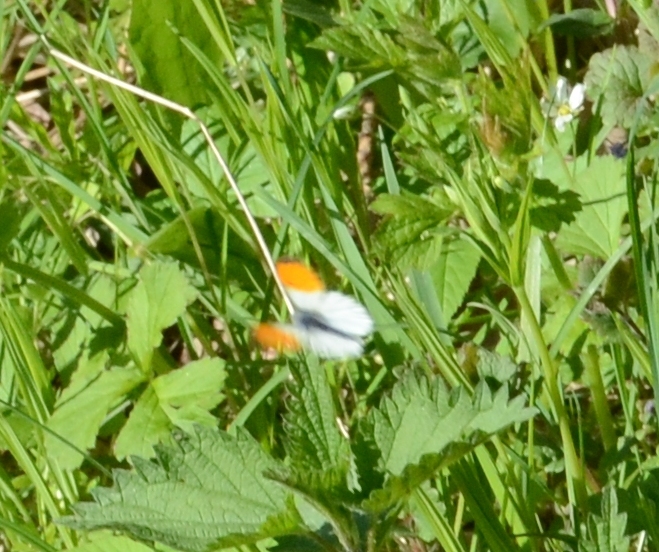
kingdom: Animalia
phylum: Arthropoda
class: Insecta
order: Lepidoptera
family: Pieridae
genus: Anthocharis
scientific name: Anthocharis cardamines
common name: Orange-tip
